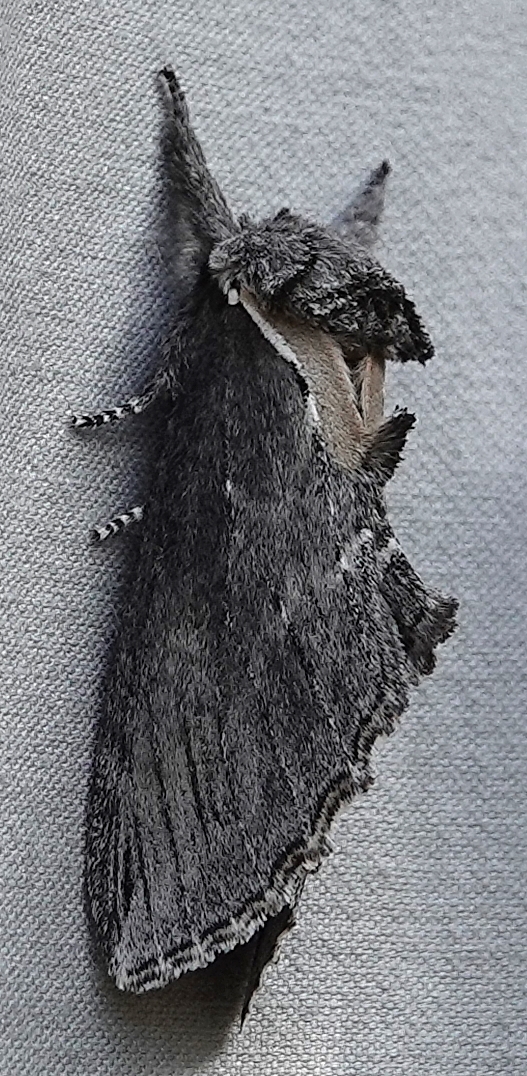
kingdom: Animalia
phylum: Arthropoda
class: Insecta
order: Lepidoptera
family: Notodontidae
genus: Pheosidea
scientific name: Pheosidea elegans
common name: Elegant prominent
